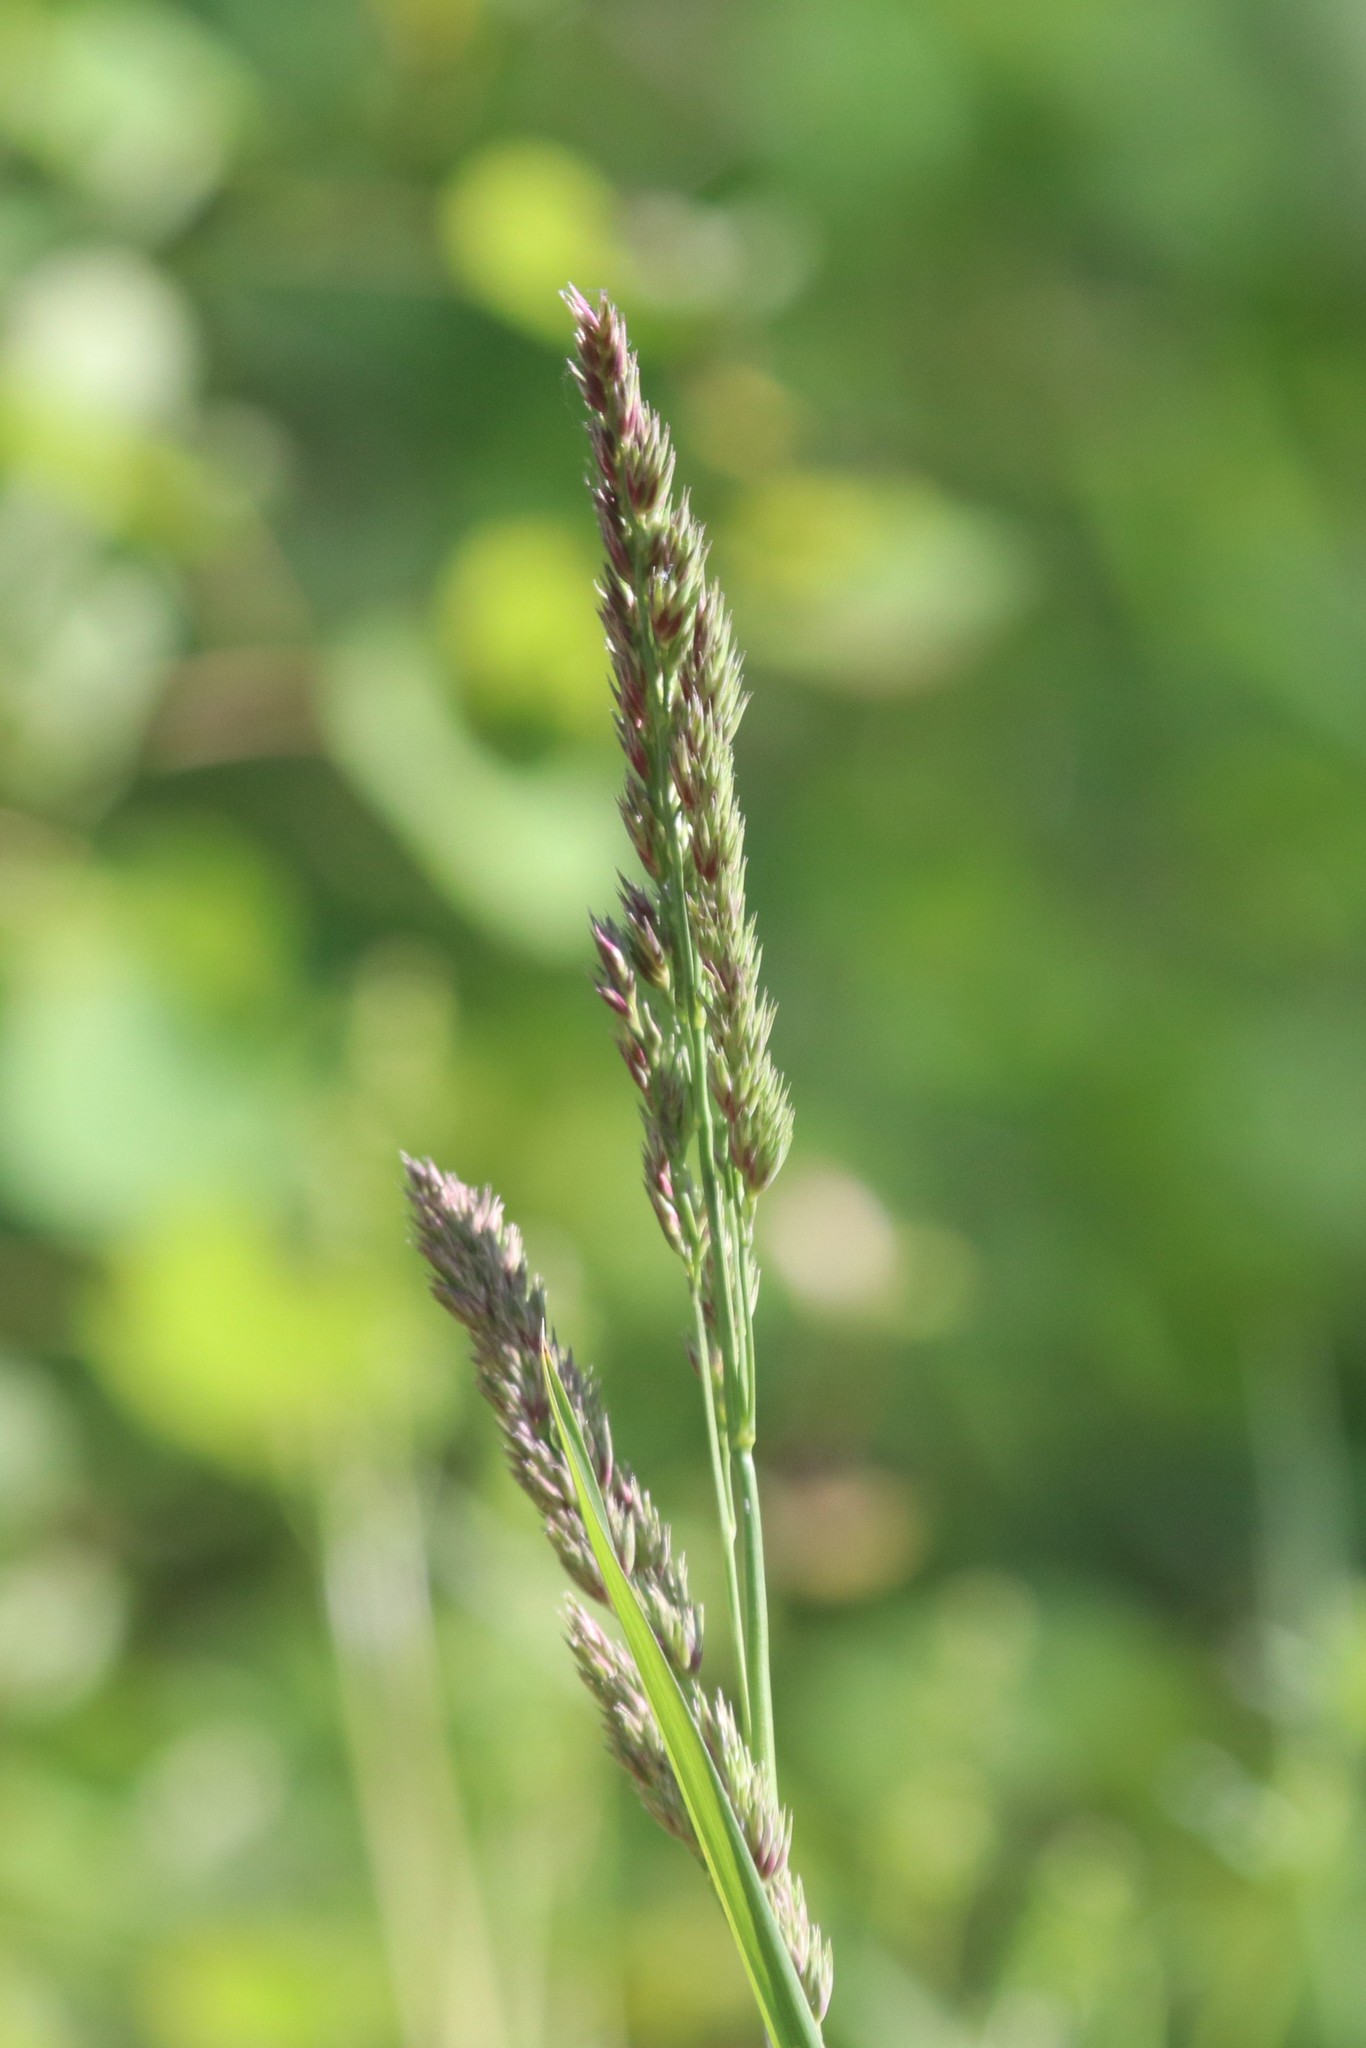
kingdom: Plantae
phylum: Tracheophyta
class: Liliopsida
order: Poales
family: Poaceae
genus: Dactylis
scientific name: Dactylis glomerata
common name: Orchardgrass
